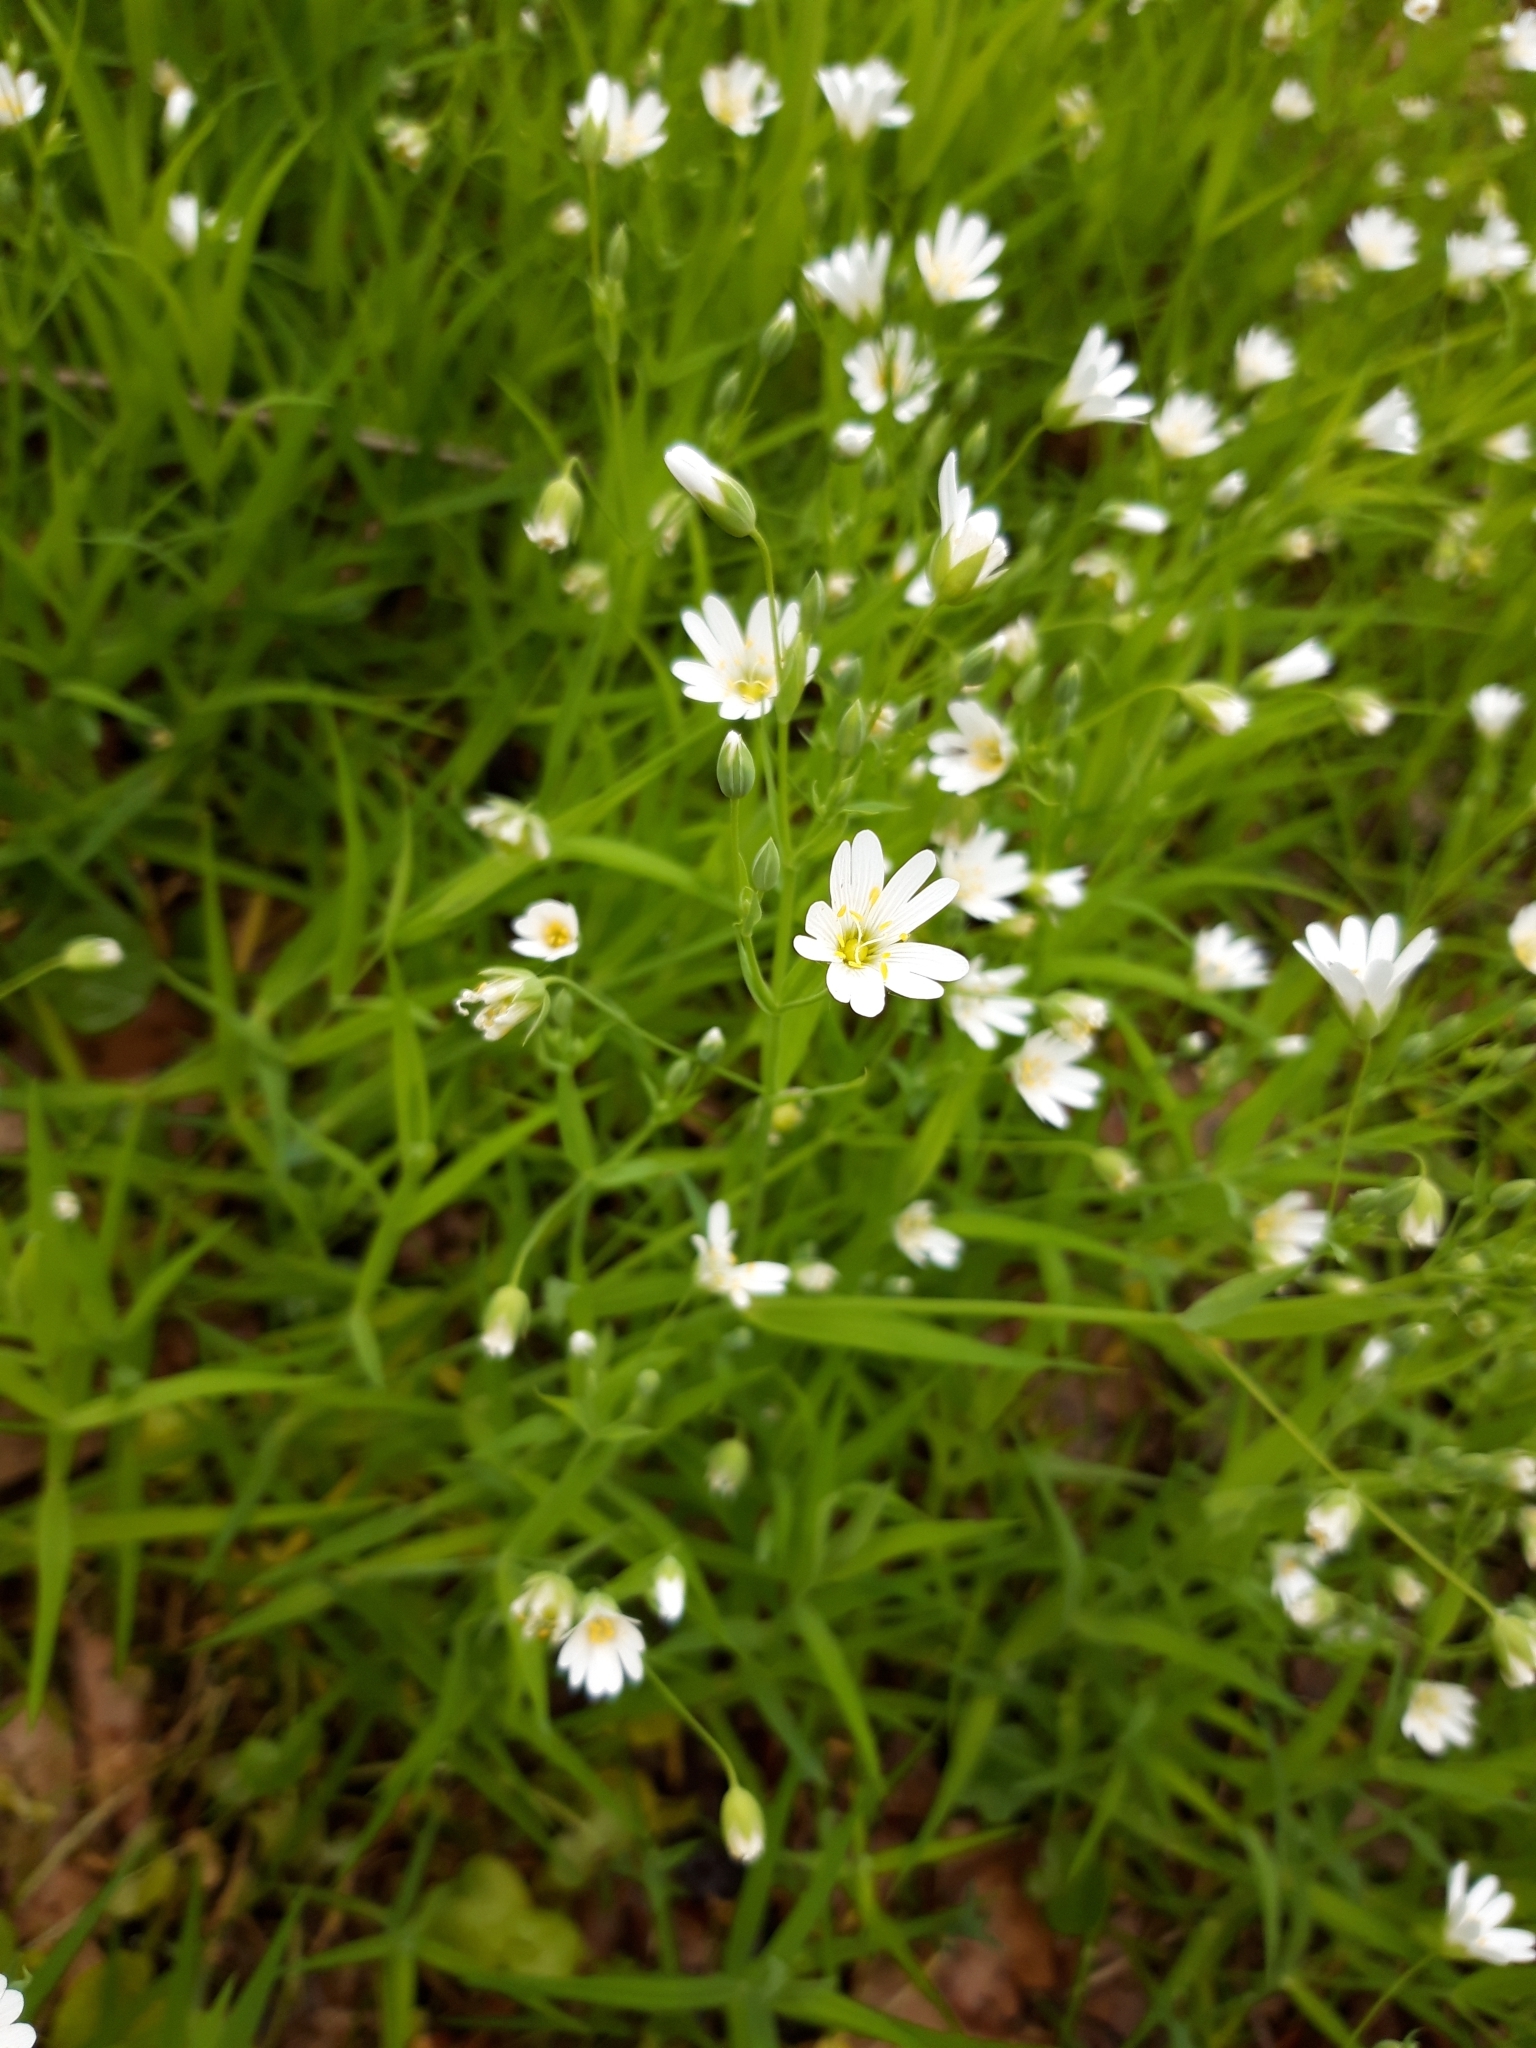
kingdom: Plantae
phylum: Tracheophyta
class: Magnoliopsida
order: Caryophyllales
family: Caryophyllaceae
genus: Rabelera
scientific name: Rabelera holostea
